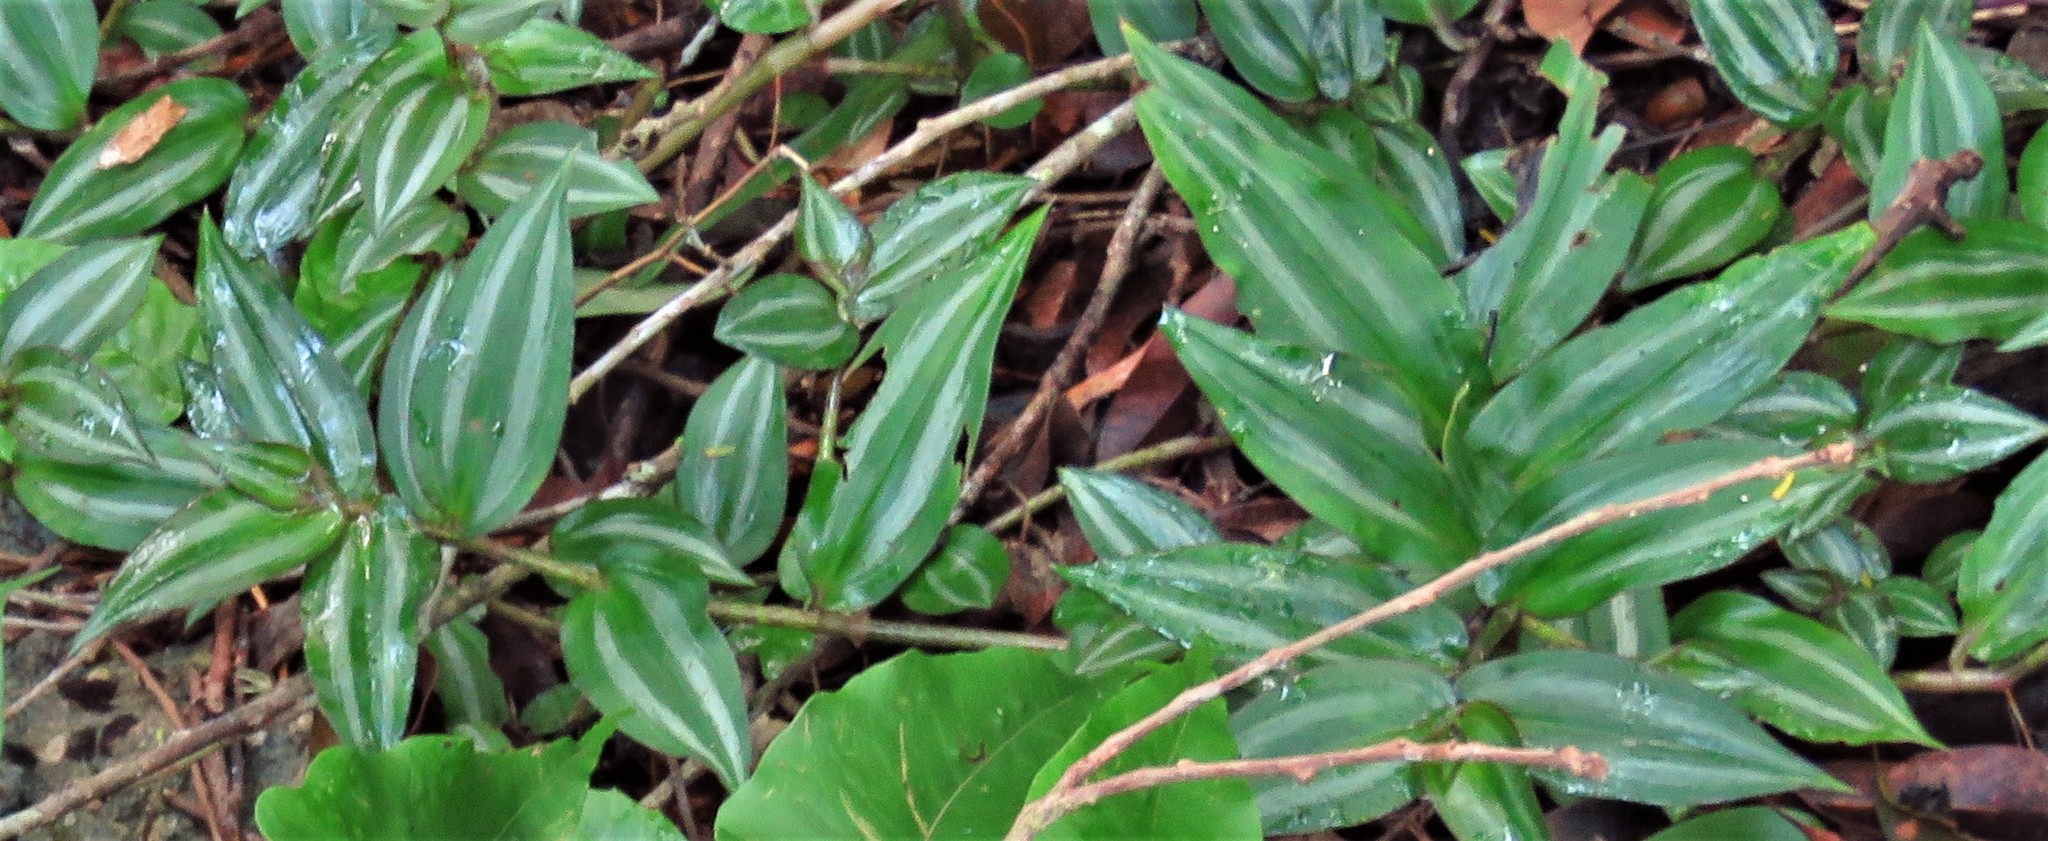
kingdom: Plantae
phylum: Tracheophyta
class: Liliopsida
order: Commelinales
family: Commelinaceae
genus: Tradescantia
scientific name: Tradescantia zebrina
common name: Inchplant
